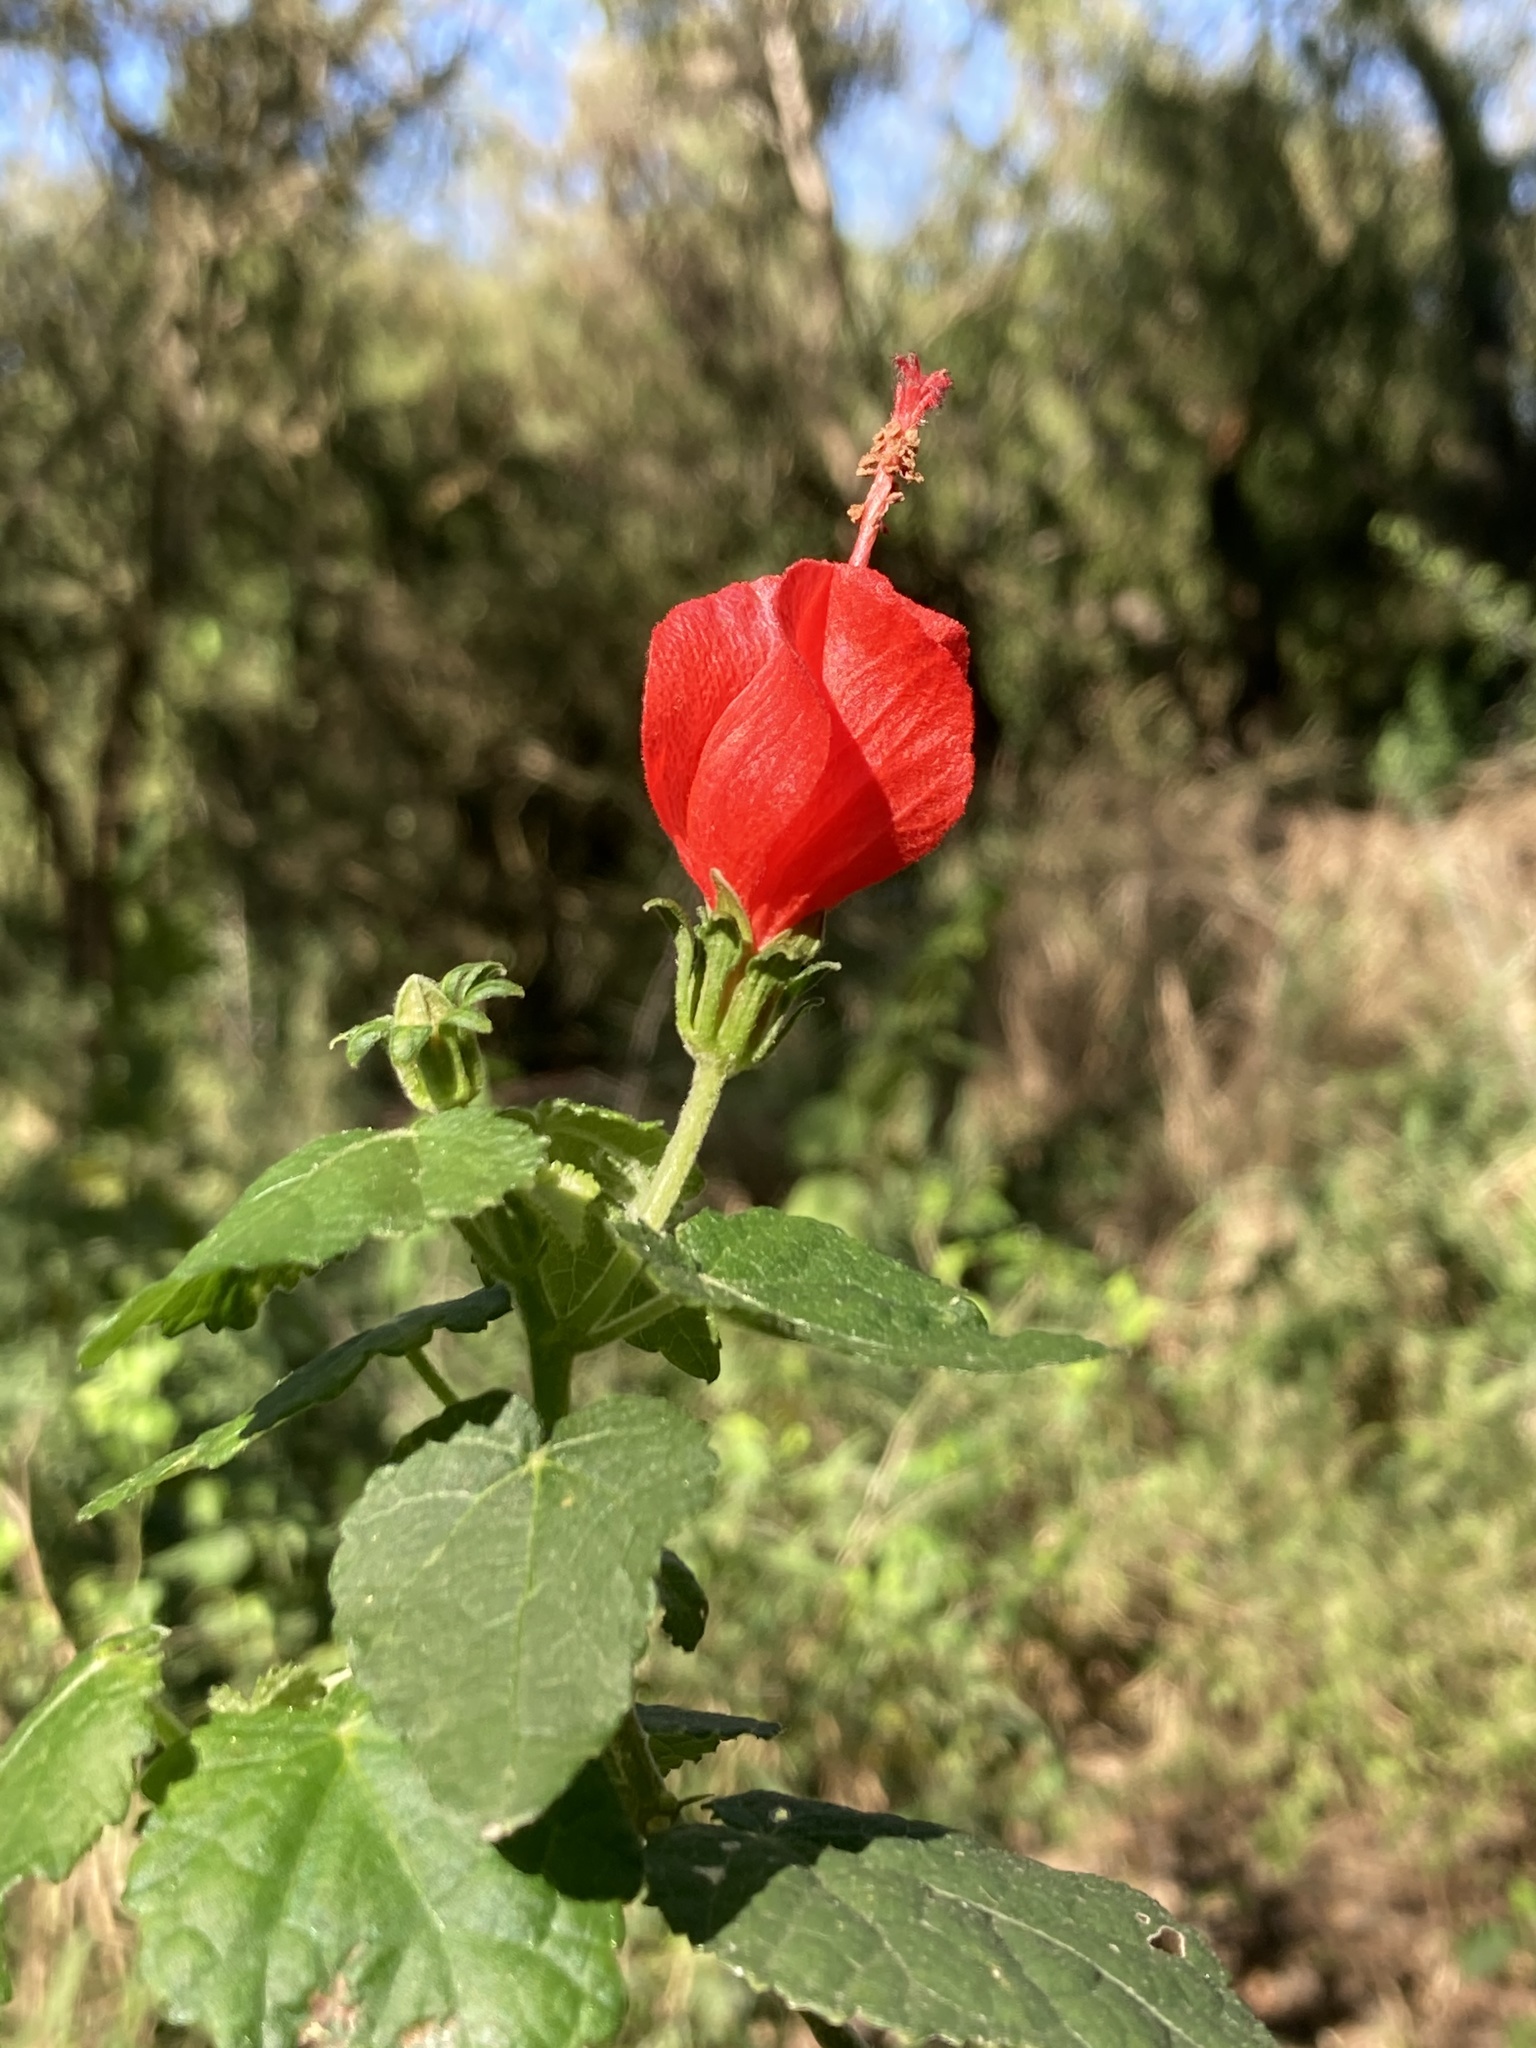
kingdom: Plantae
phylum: Tracheophyta
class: Magnoliopsida
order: Malvales
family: Malvaceae
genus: Malvaviscus
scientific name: Malvaviscus arboreus
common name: Wax mallow
